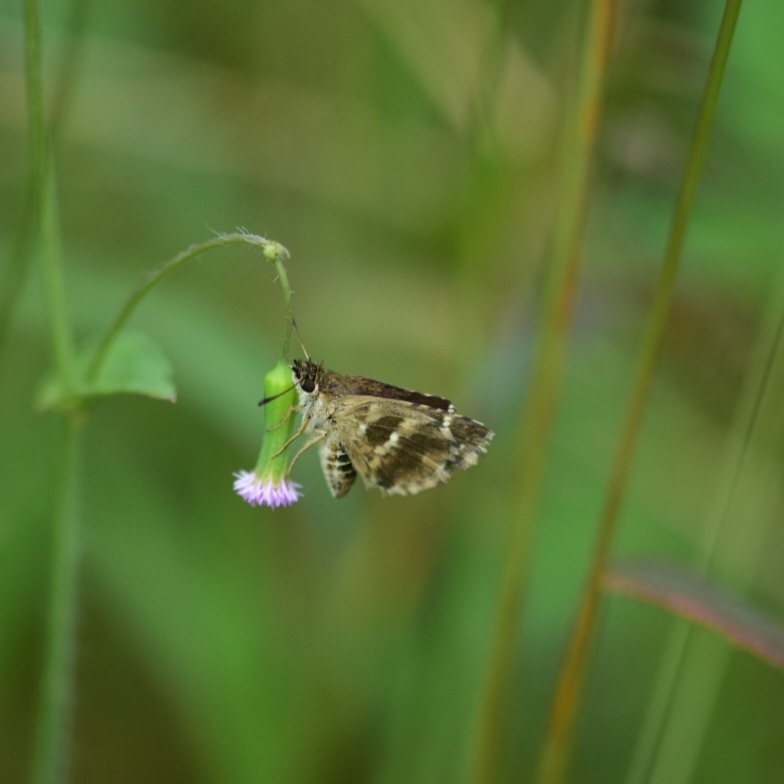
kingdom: Animalia
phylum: Arthropoda
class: Insecta
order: Lepidoptera
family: Hesperiidae
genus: Spialia
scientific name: Spialia galba
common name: Indian skipper
